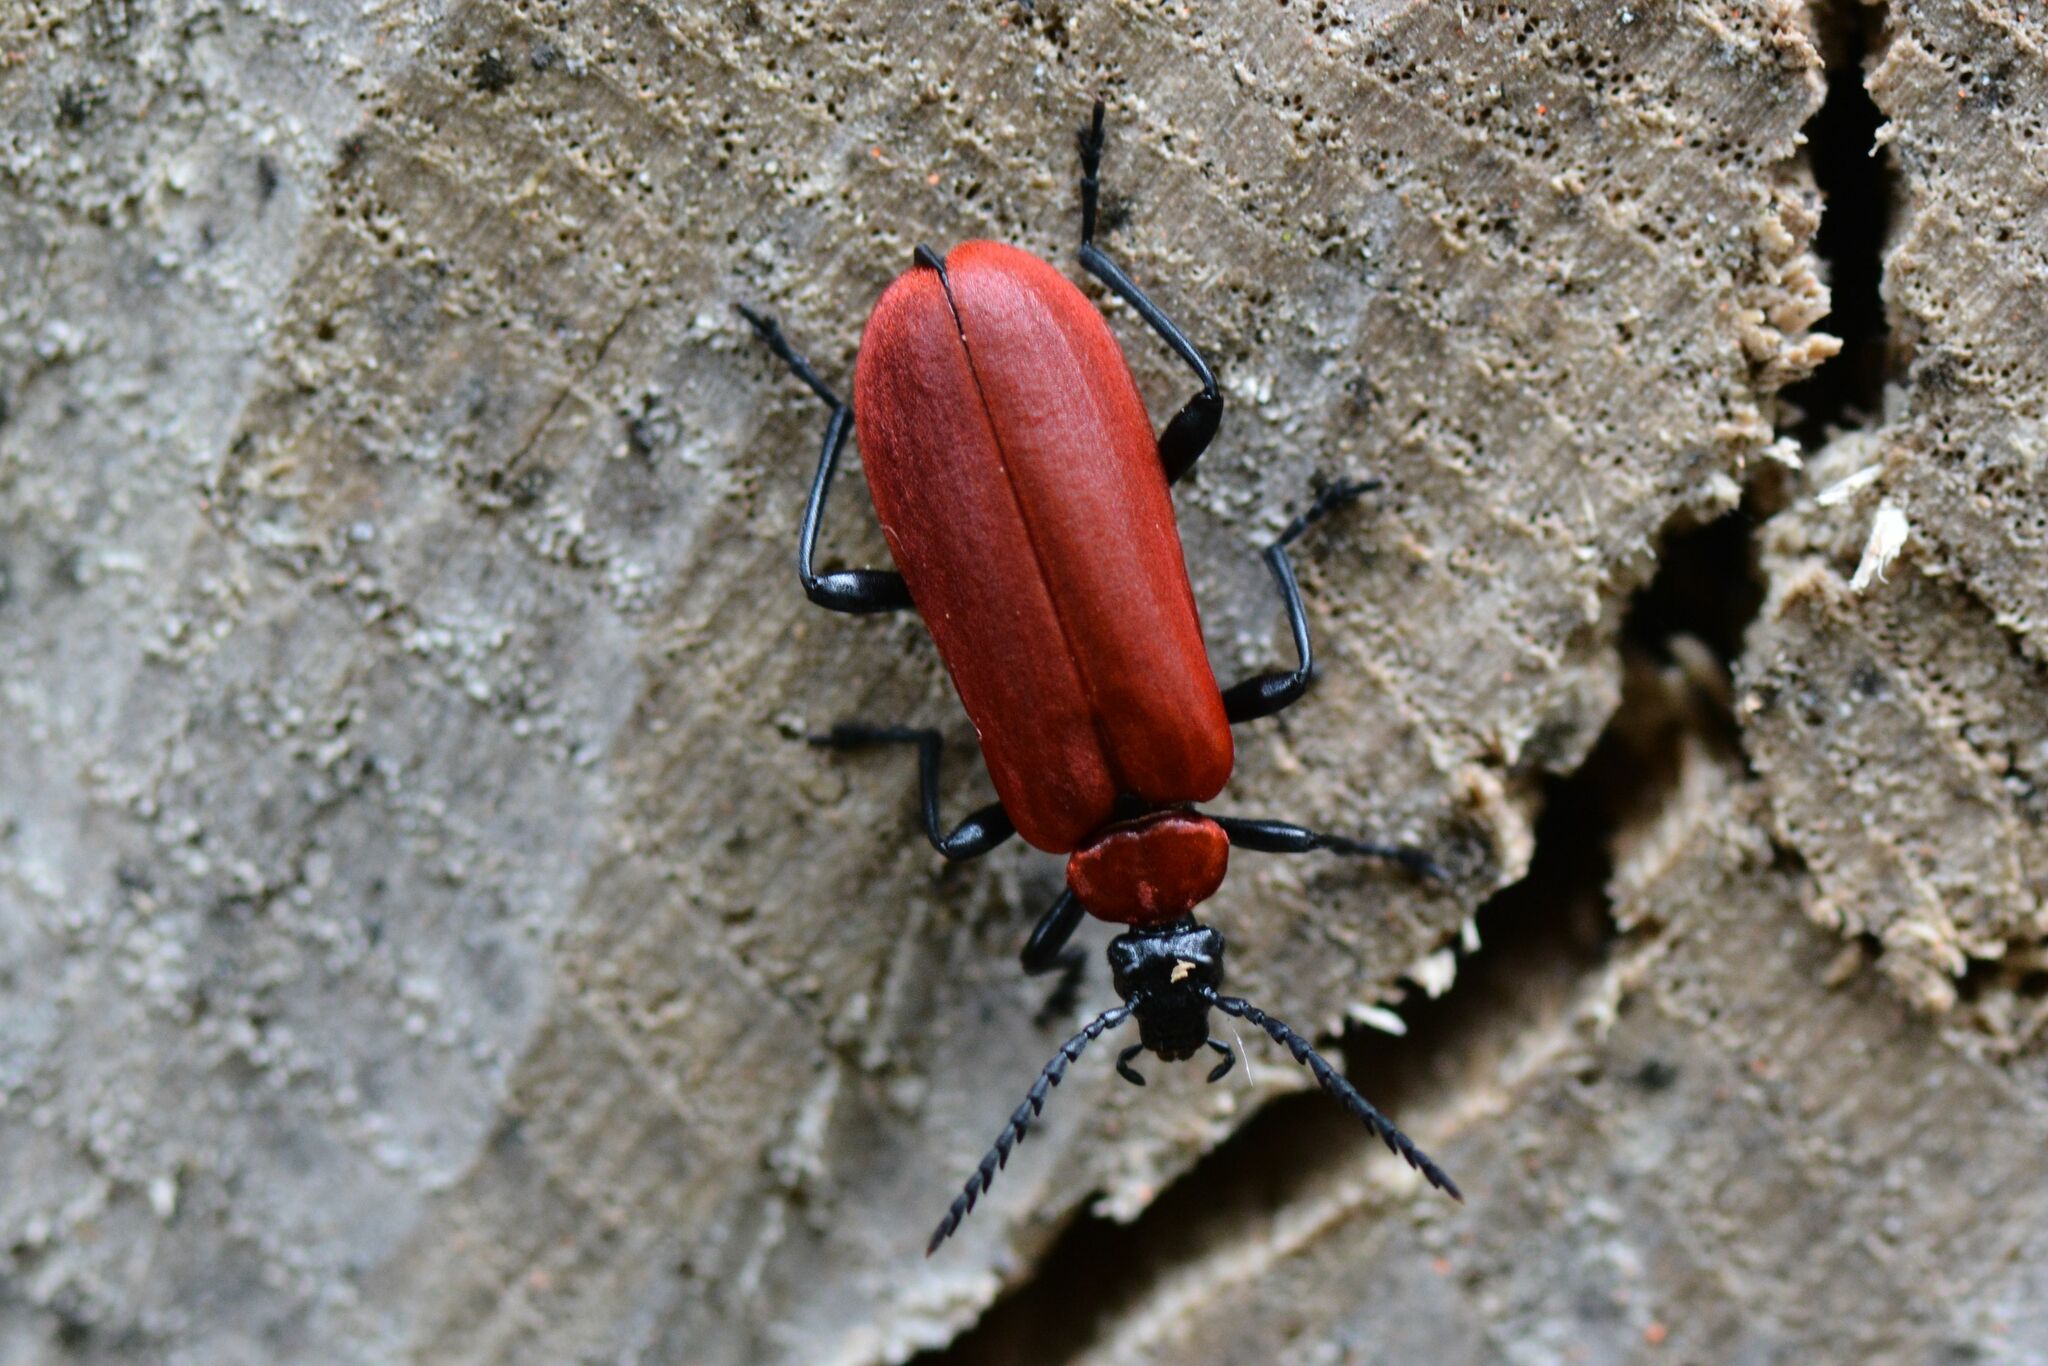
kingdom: Animalia
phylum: Arthropoda
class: Insecta
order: Coleoptera
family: Pyrochroidae
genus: Pyrochroa
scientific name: Pyrochroa coccinea
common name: Black-headed cardinal beetle
